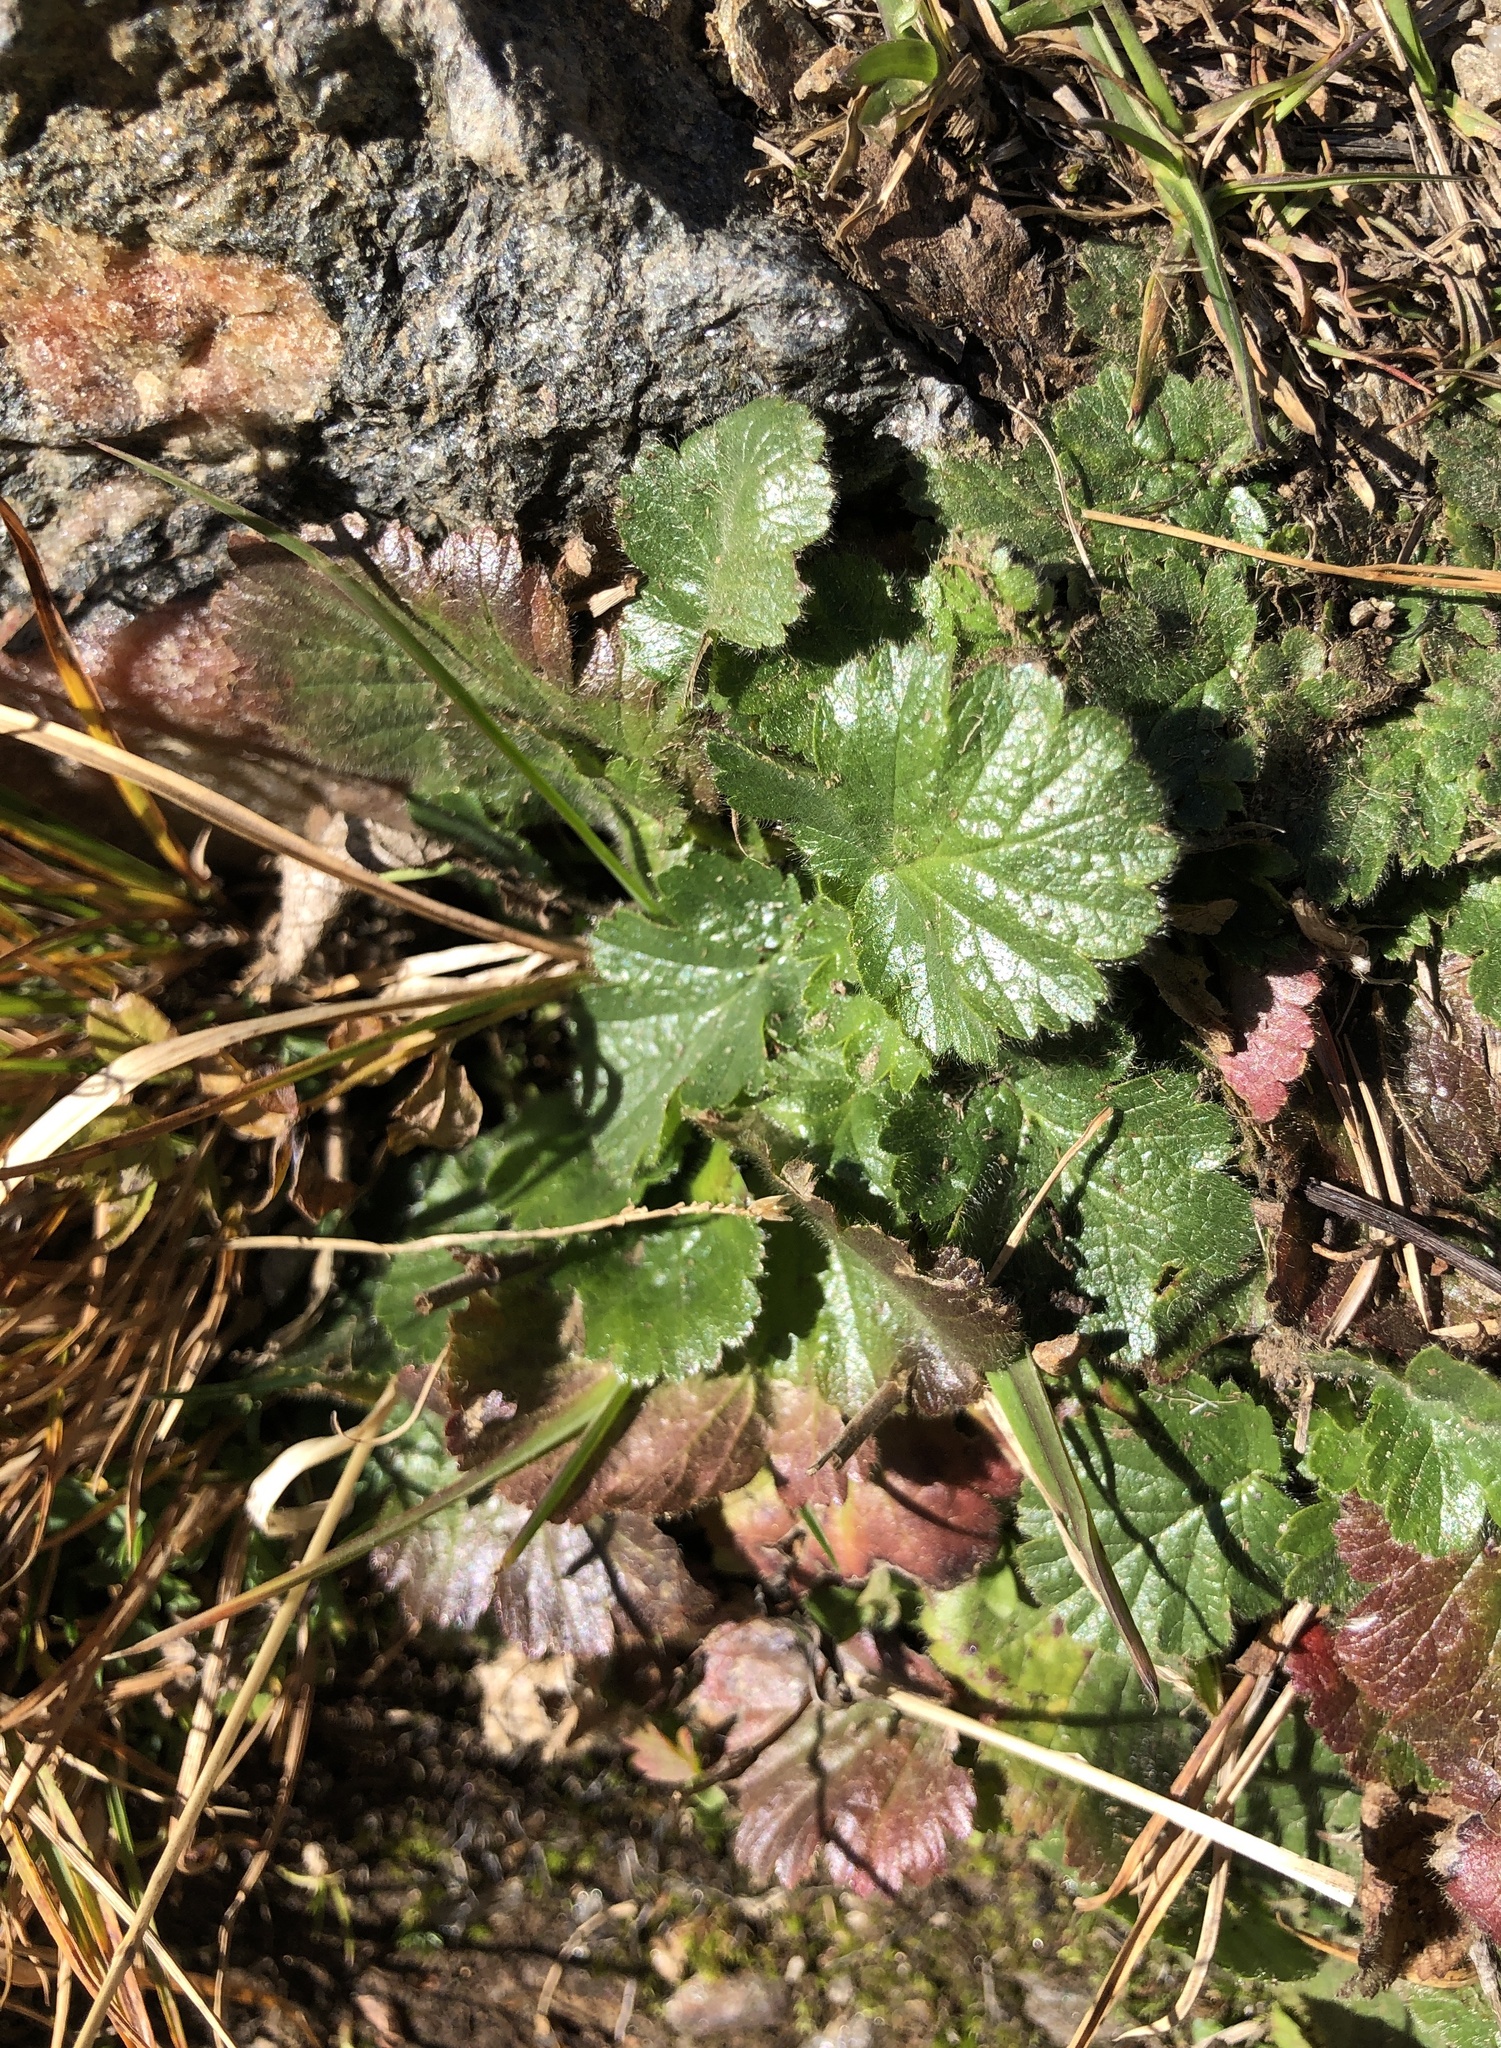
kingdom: Plantae
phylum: Tracheophyta
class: Magnoliopsida
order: Rosales
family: Rosaceae
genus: Geum
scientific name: Geum montanum
